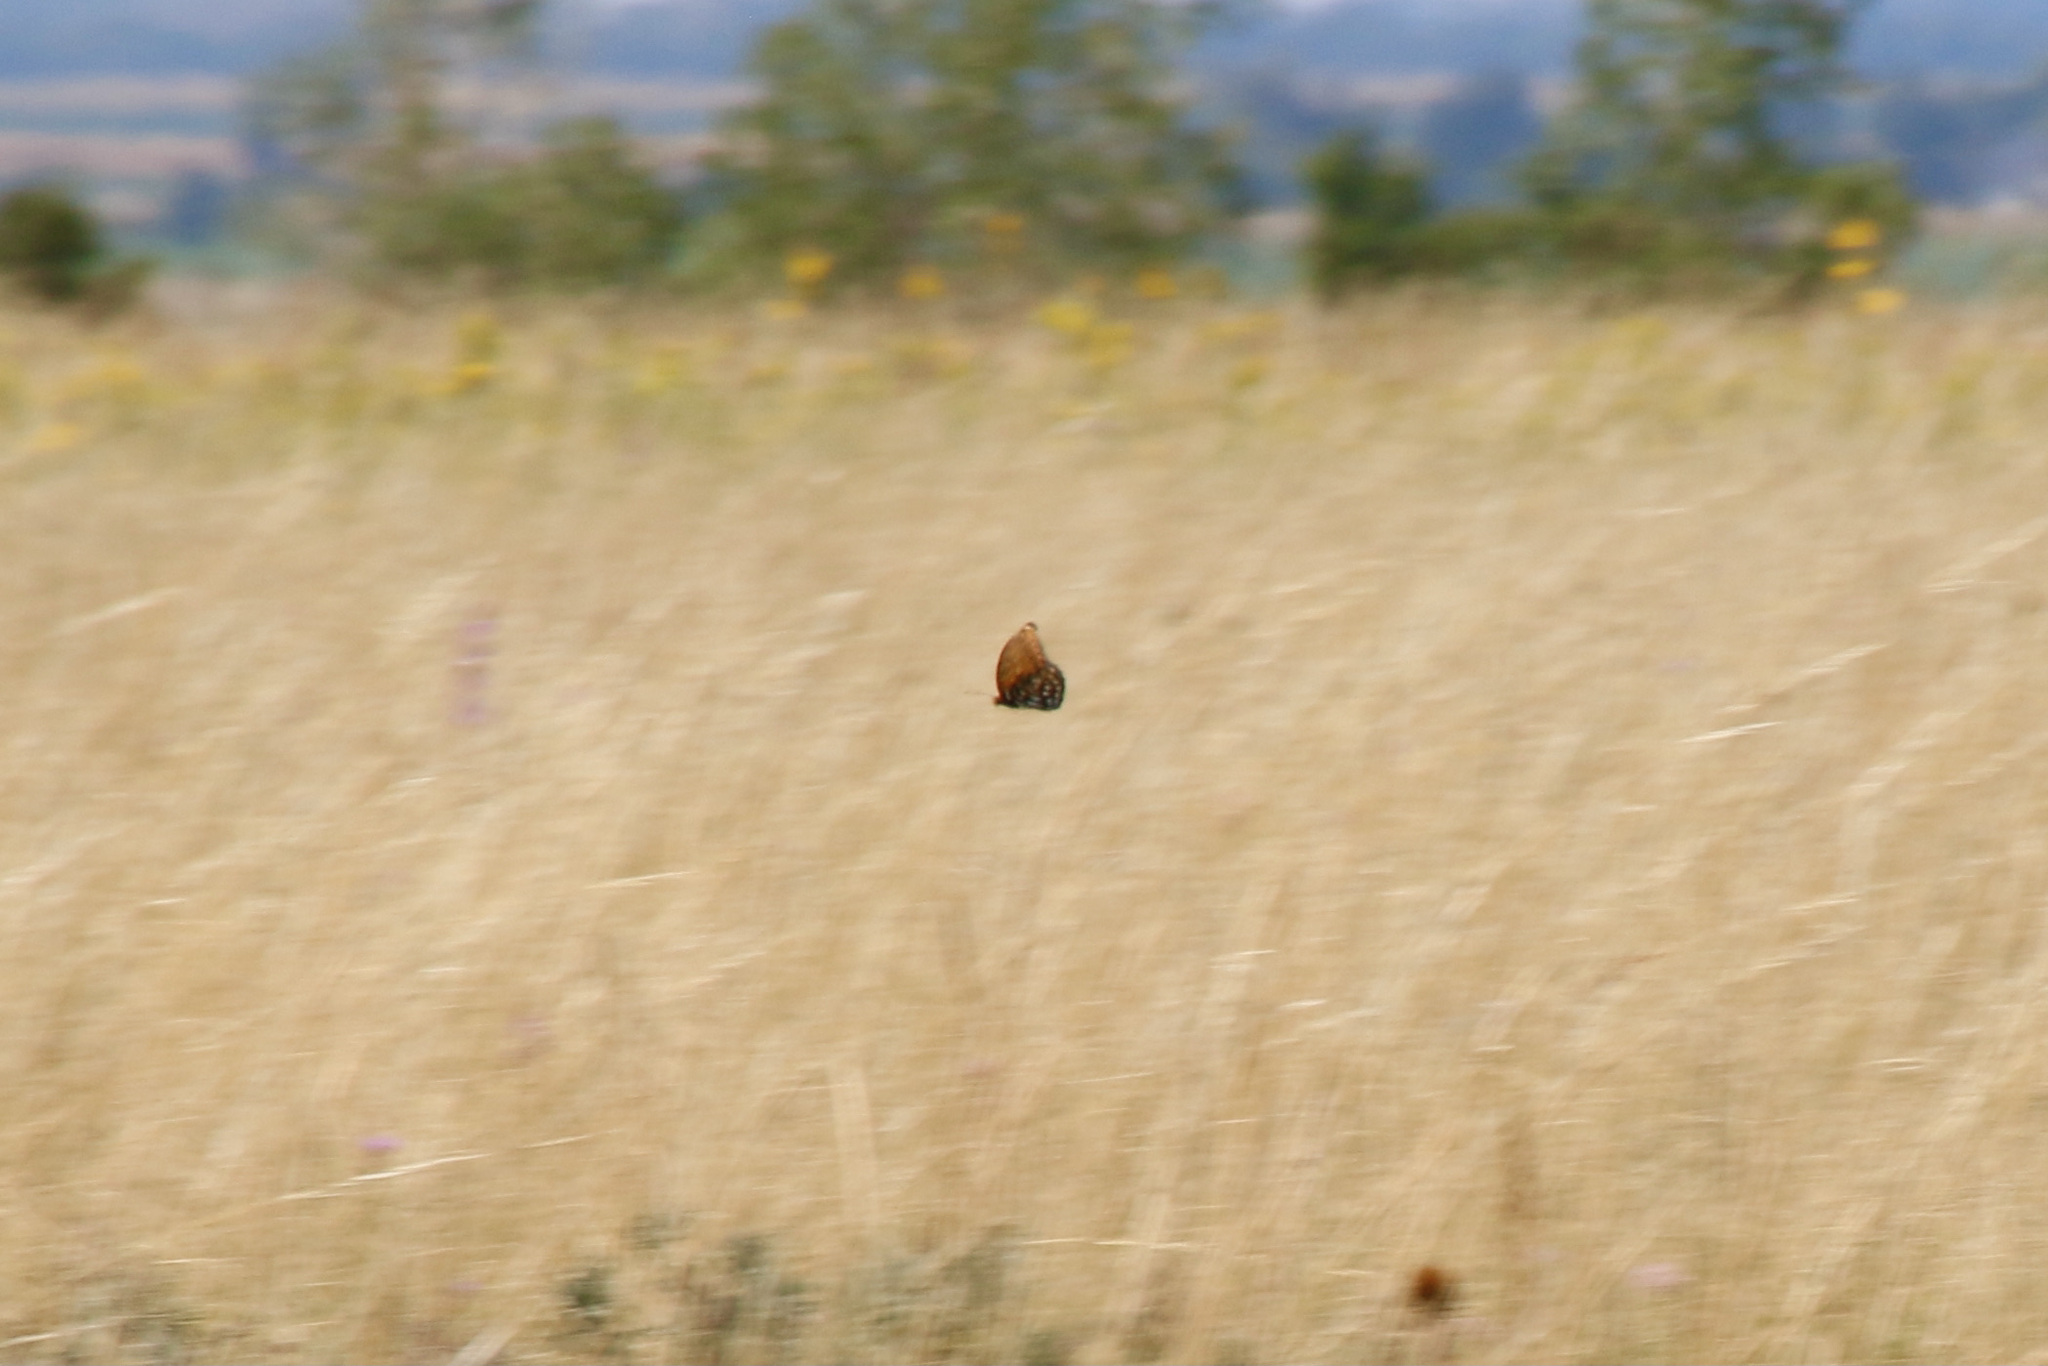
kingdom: Animalia
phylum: Arthropoda
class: Insecta
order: Lepidoptera
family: Nymphalidae
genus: Speyeria
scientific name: Speyeria idalia
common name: Regal fritillary
